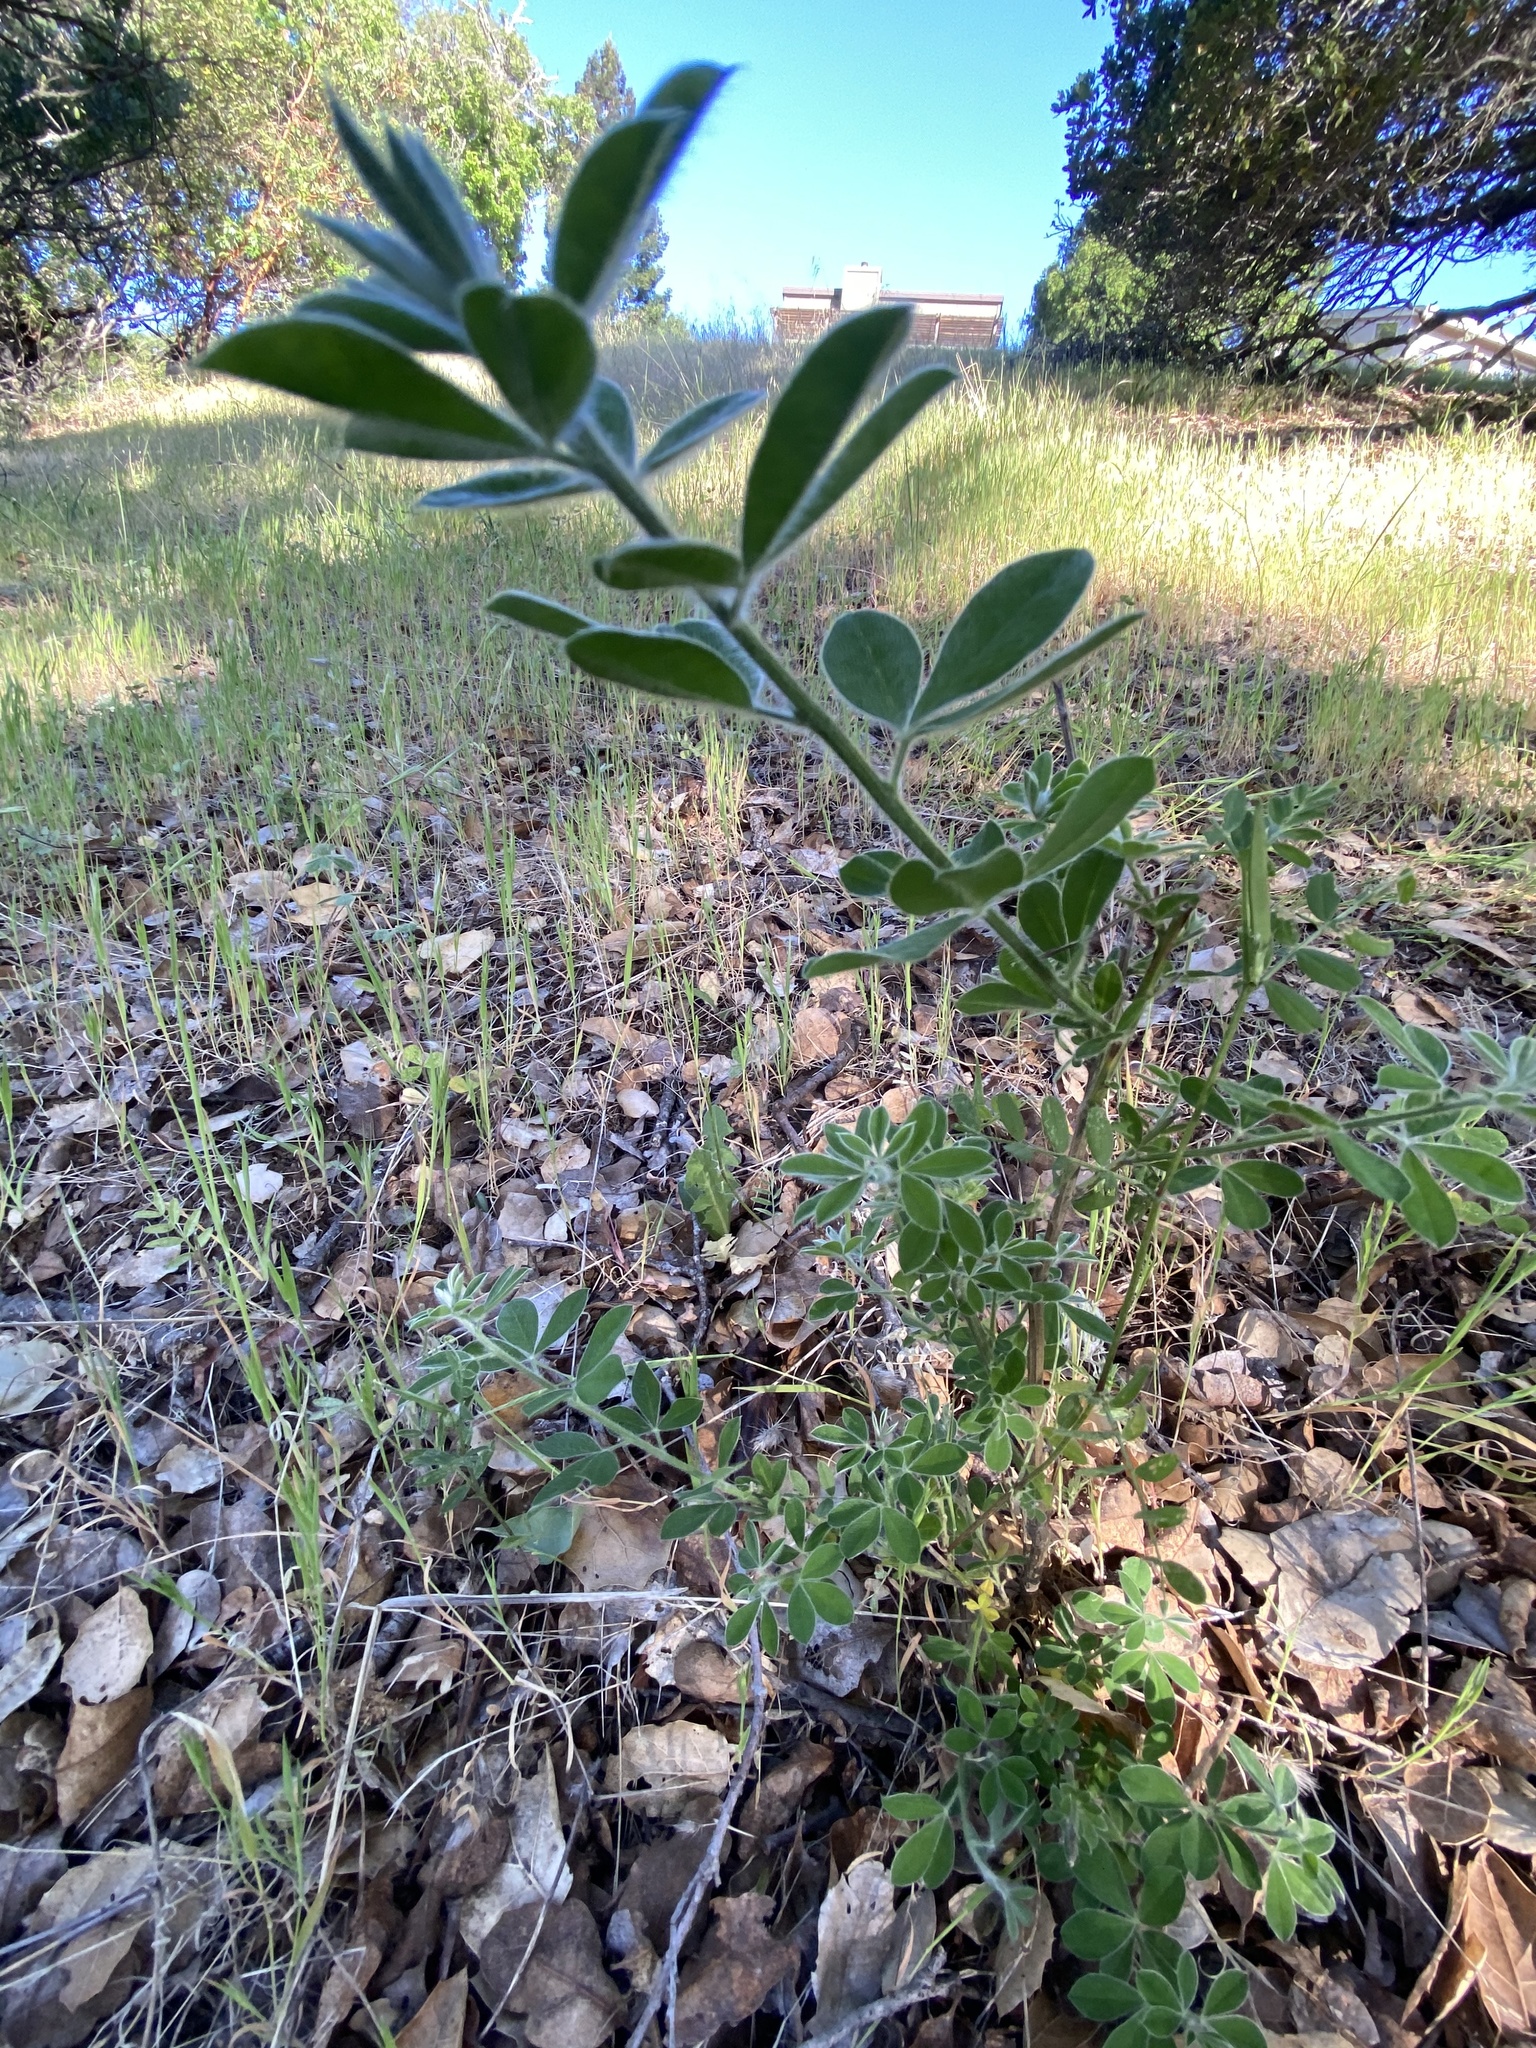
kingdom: Plantae
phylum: Tracheophyta
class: Magnoliopsida
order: Fabales
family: Fabaceae
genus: Genista
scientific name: Genista monspessulana
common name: Montpellier broom
